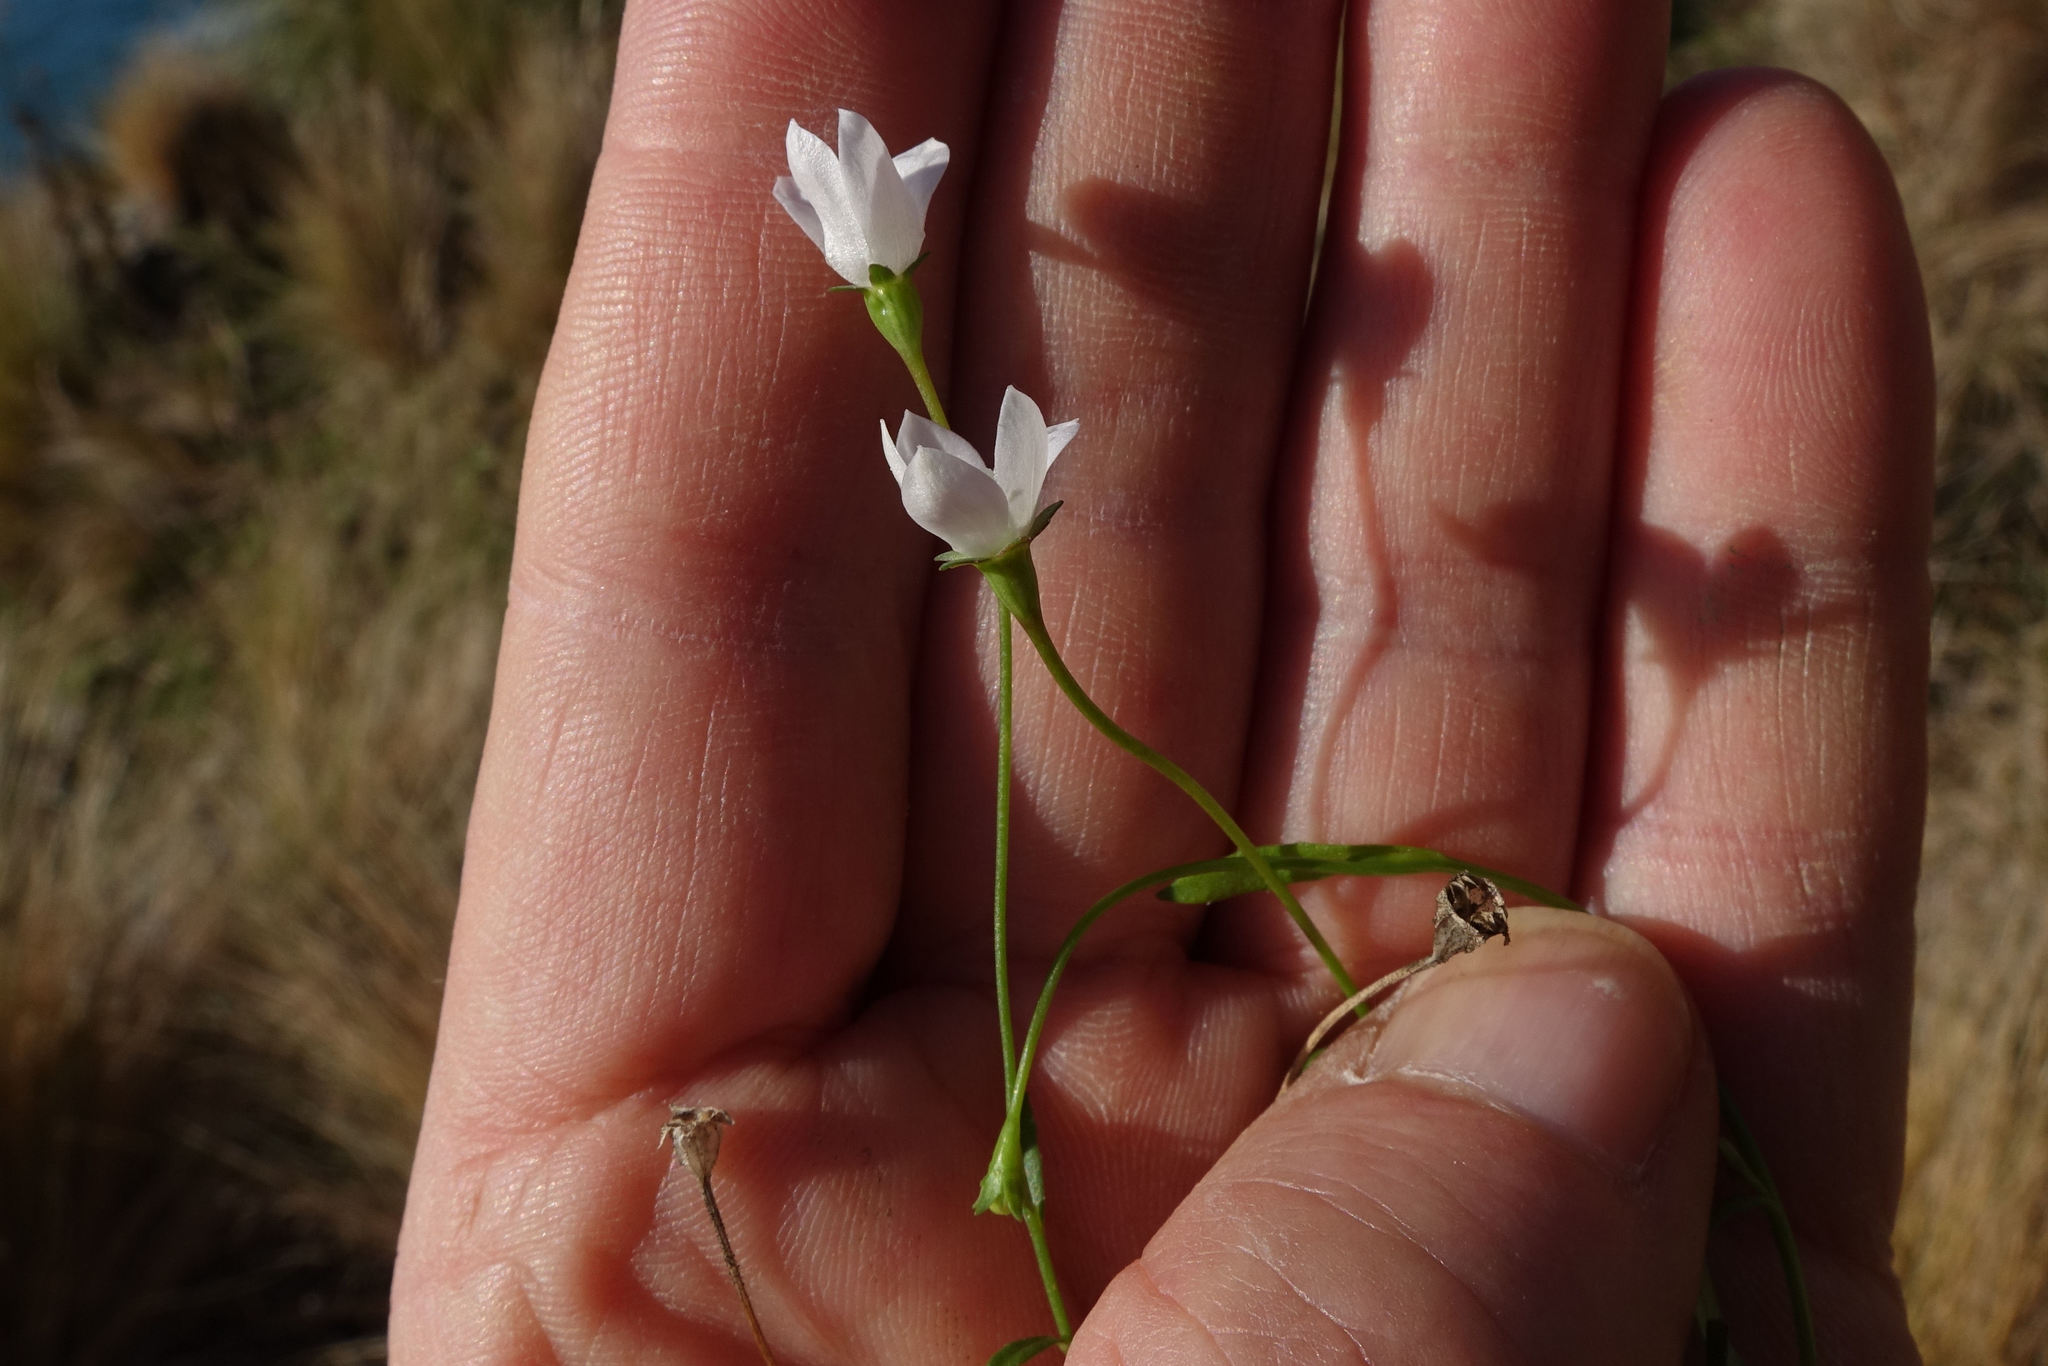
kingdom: Plantae
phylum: Tracheophyta
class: Magnoliopsida
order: Asterales
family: Campanulaceae
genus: Wahlenbergia
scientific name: Wahlenbergia rupestris
